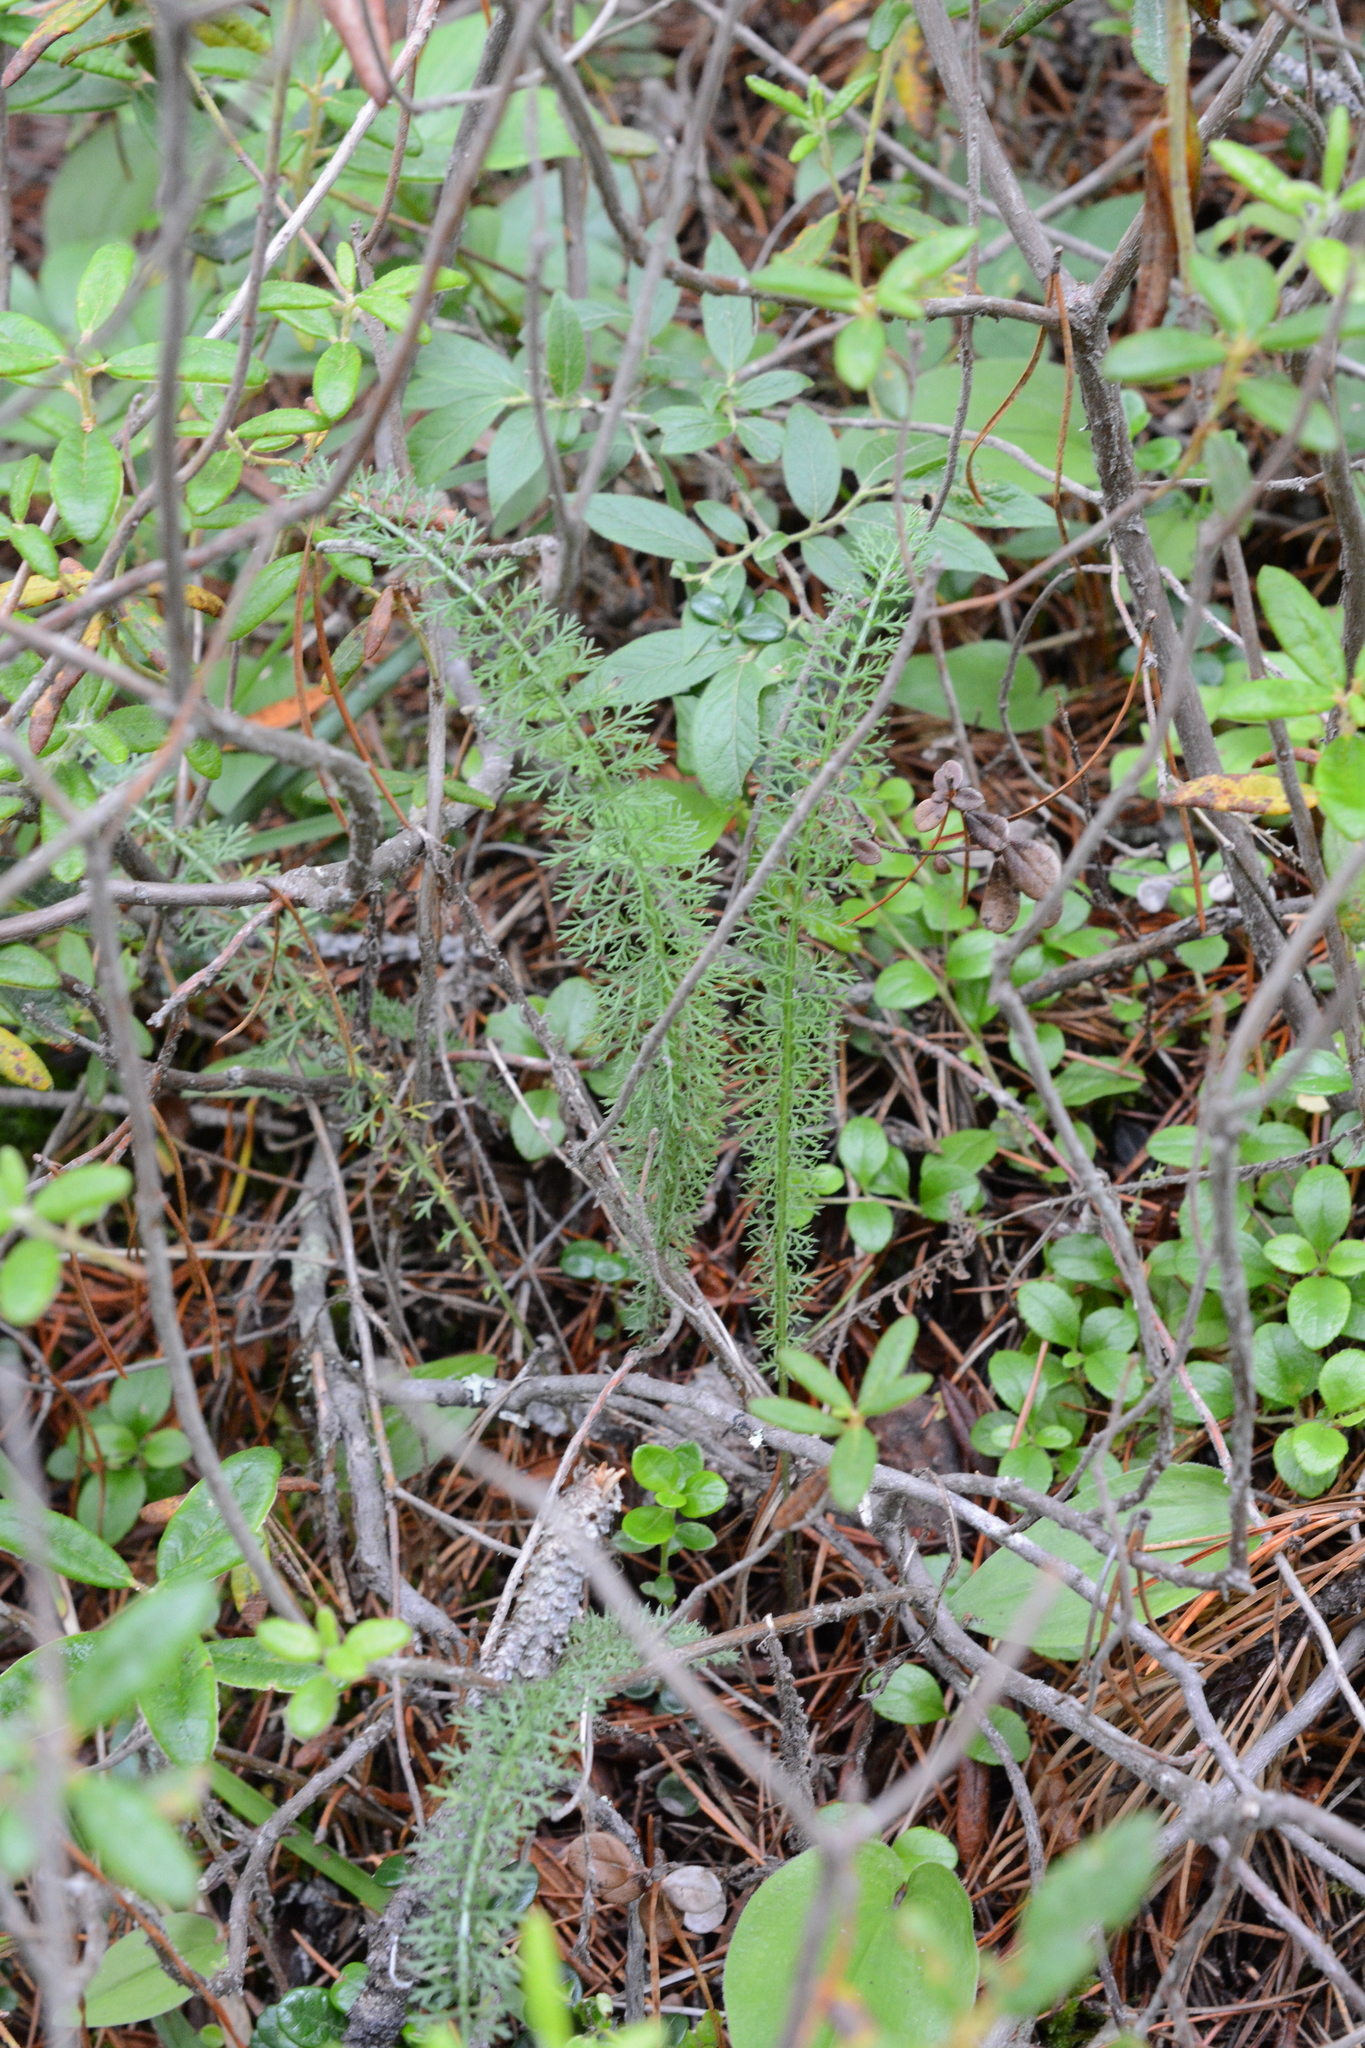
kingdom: Plantae
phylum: Tracheophyta
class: Magnoliopsida
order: Asterales
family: Asteraceae
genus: Achillea
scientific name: Achillea millefolium
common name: Yarrow
